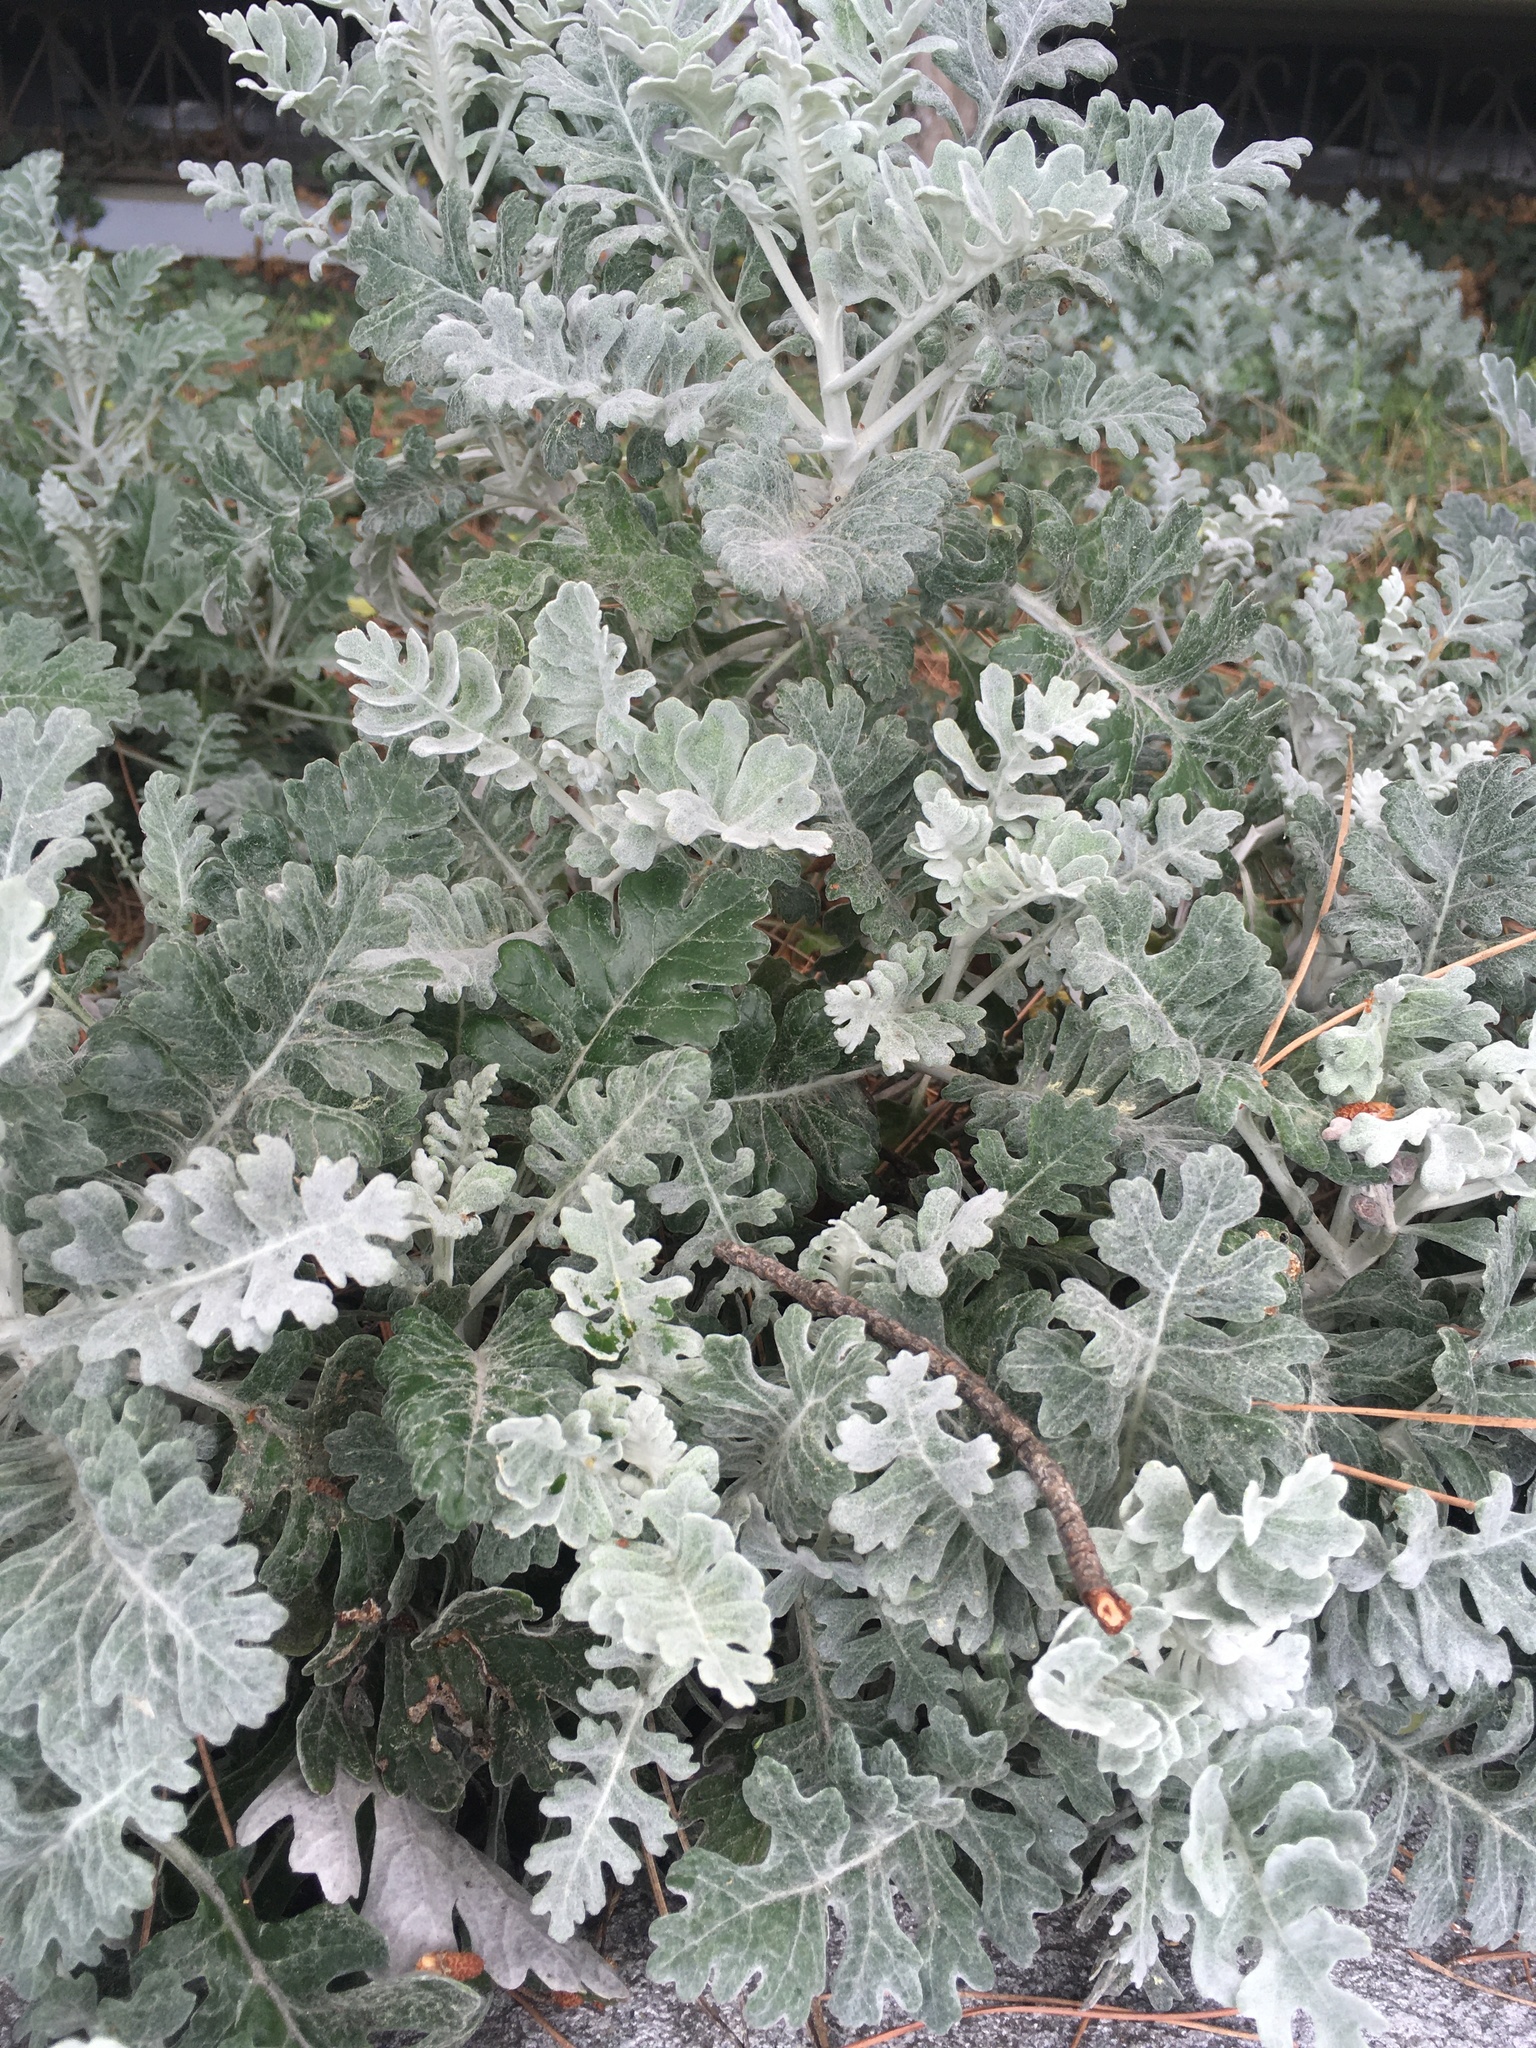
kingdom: Plantae
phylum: Tracheophyta
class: Magnoliopsida
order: Asterales
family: Asteraceae
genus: Jacobaea
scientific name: Jacobaea maritima
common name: Silver ragwort
